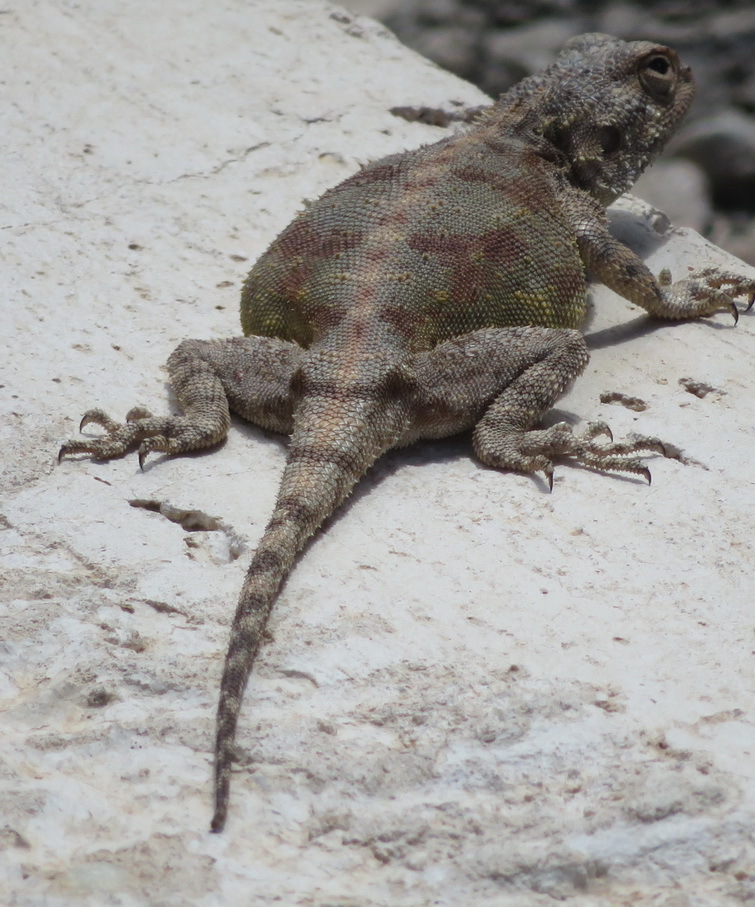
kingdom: Animalia
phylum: Chordata
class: Squamata
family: Agamidae
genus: Agama
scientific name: Agama atra
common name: Southern african rock agama
